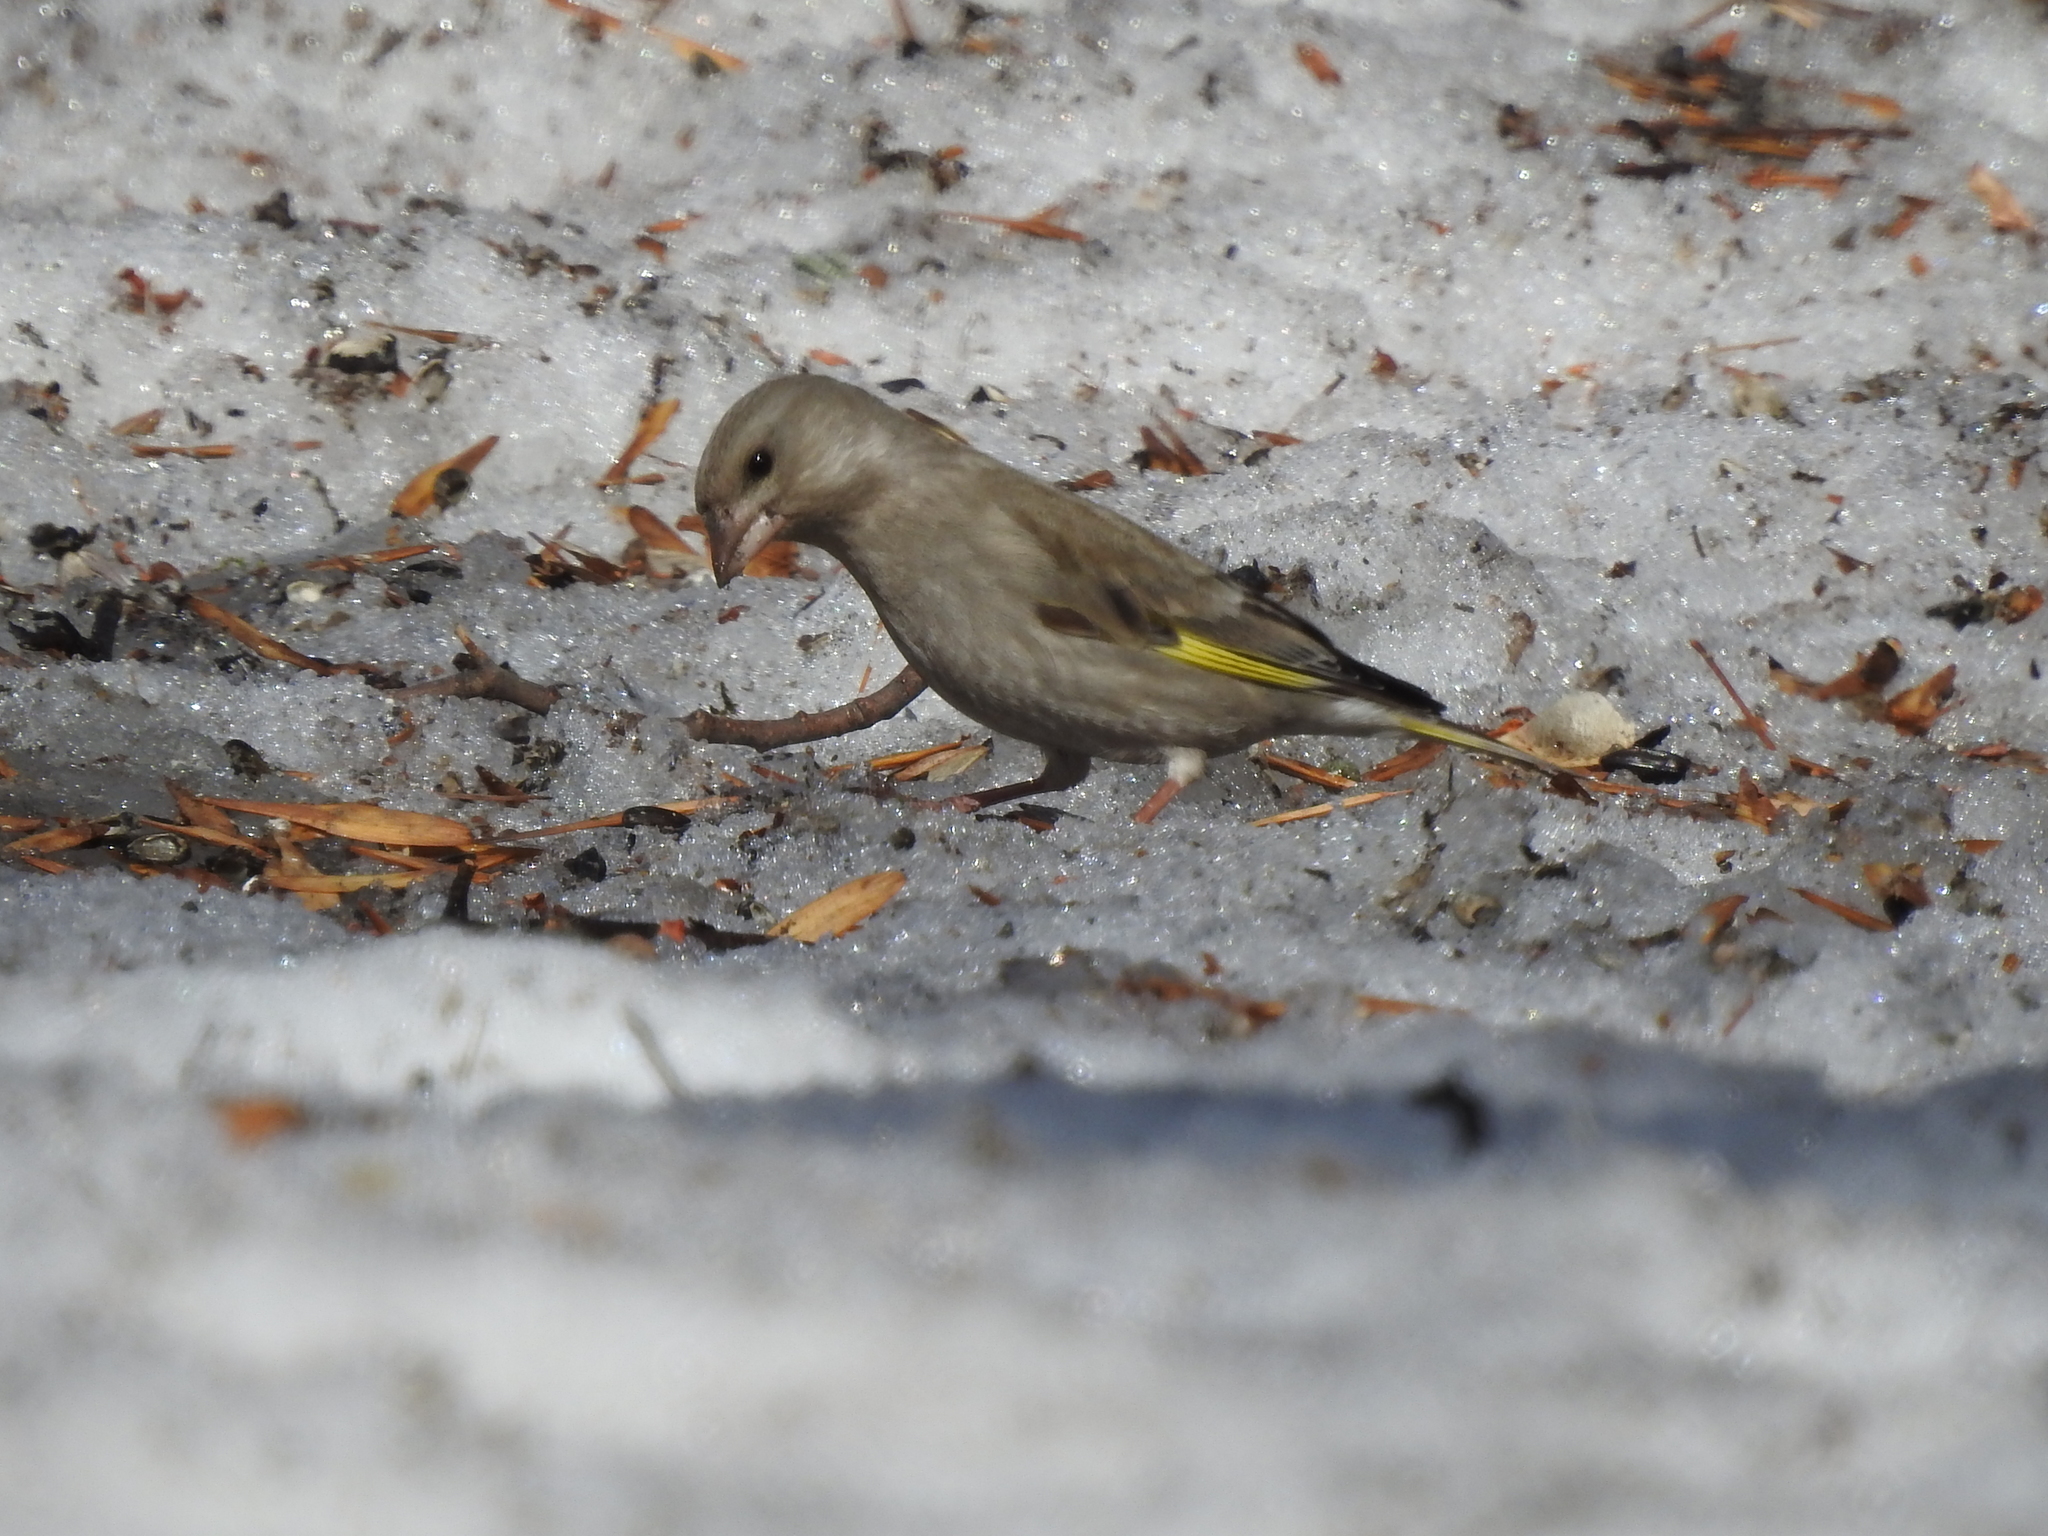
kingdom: Plantae
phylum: Tracheophyta
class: Liliopsida
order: Poales
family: Poaceae
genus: Chloris
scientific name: Chloris chloris
